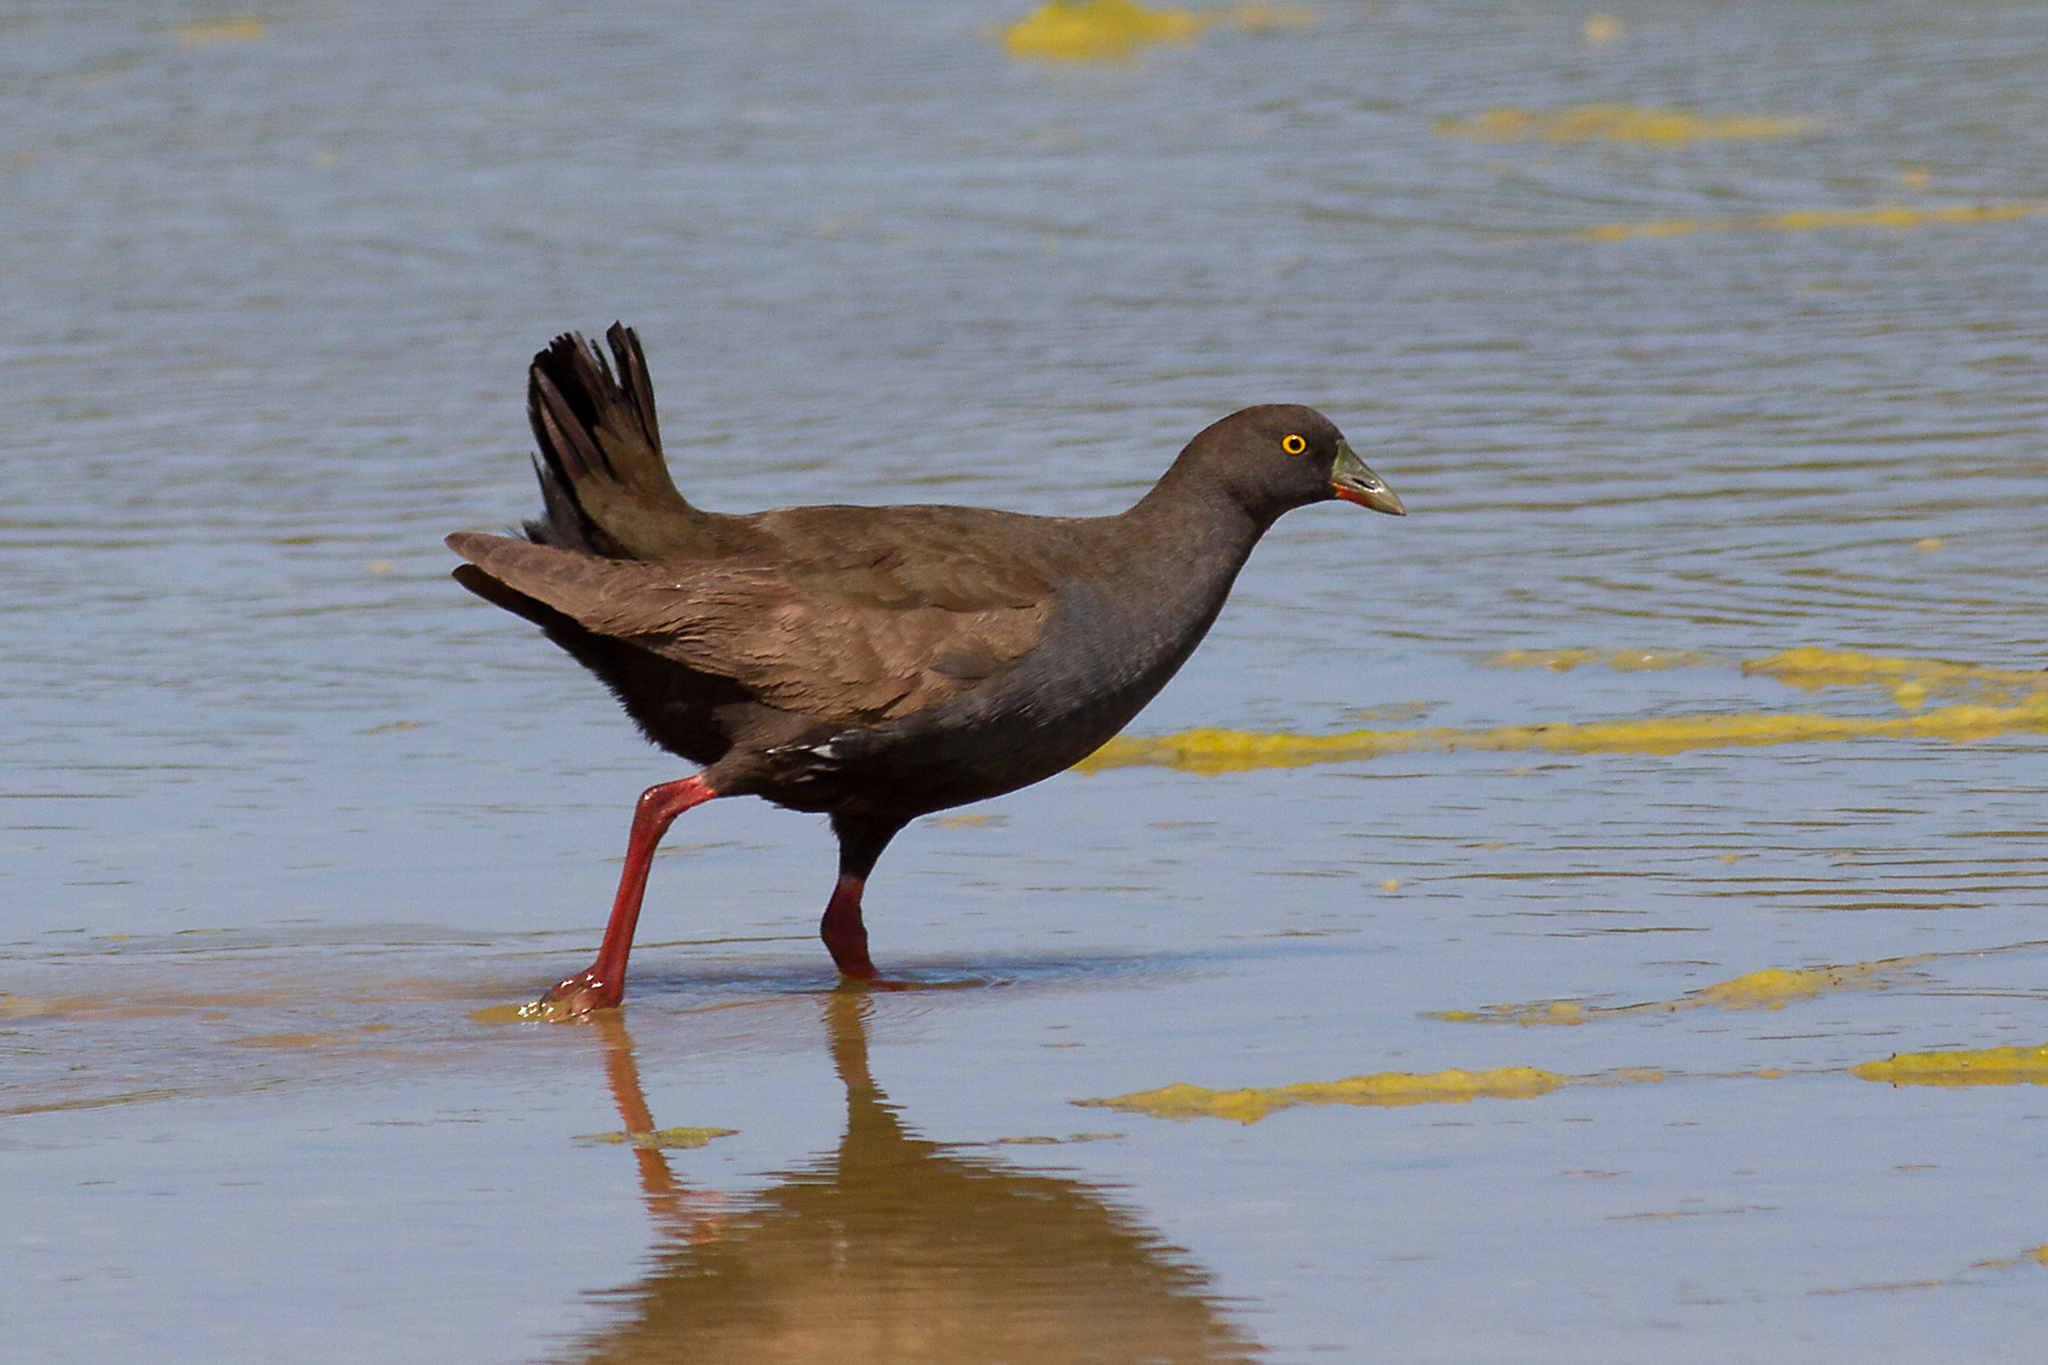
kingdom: Animalia
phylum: Chordata
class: Aves
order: Gruiformes
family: Rallidae
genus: Gallinula
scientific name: Gallinula ventralis
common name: Black-tailed nativehen
